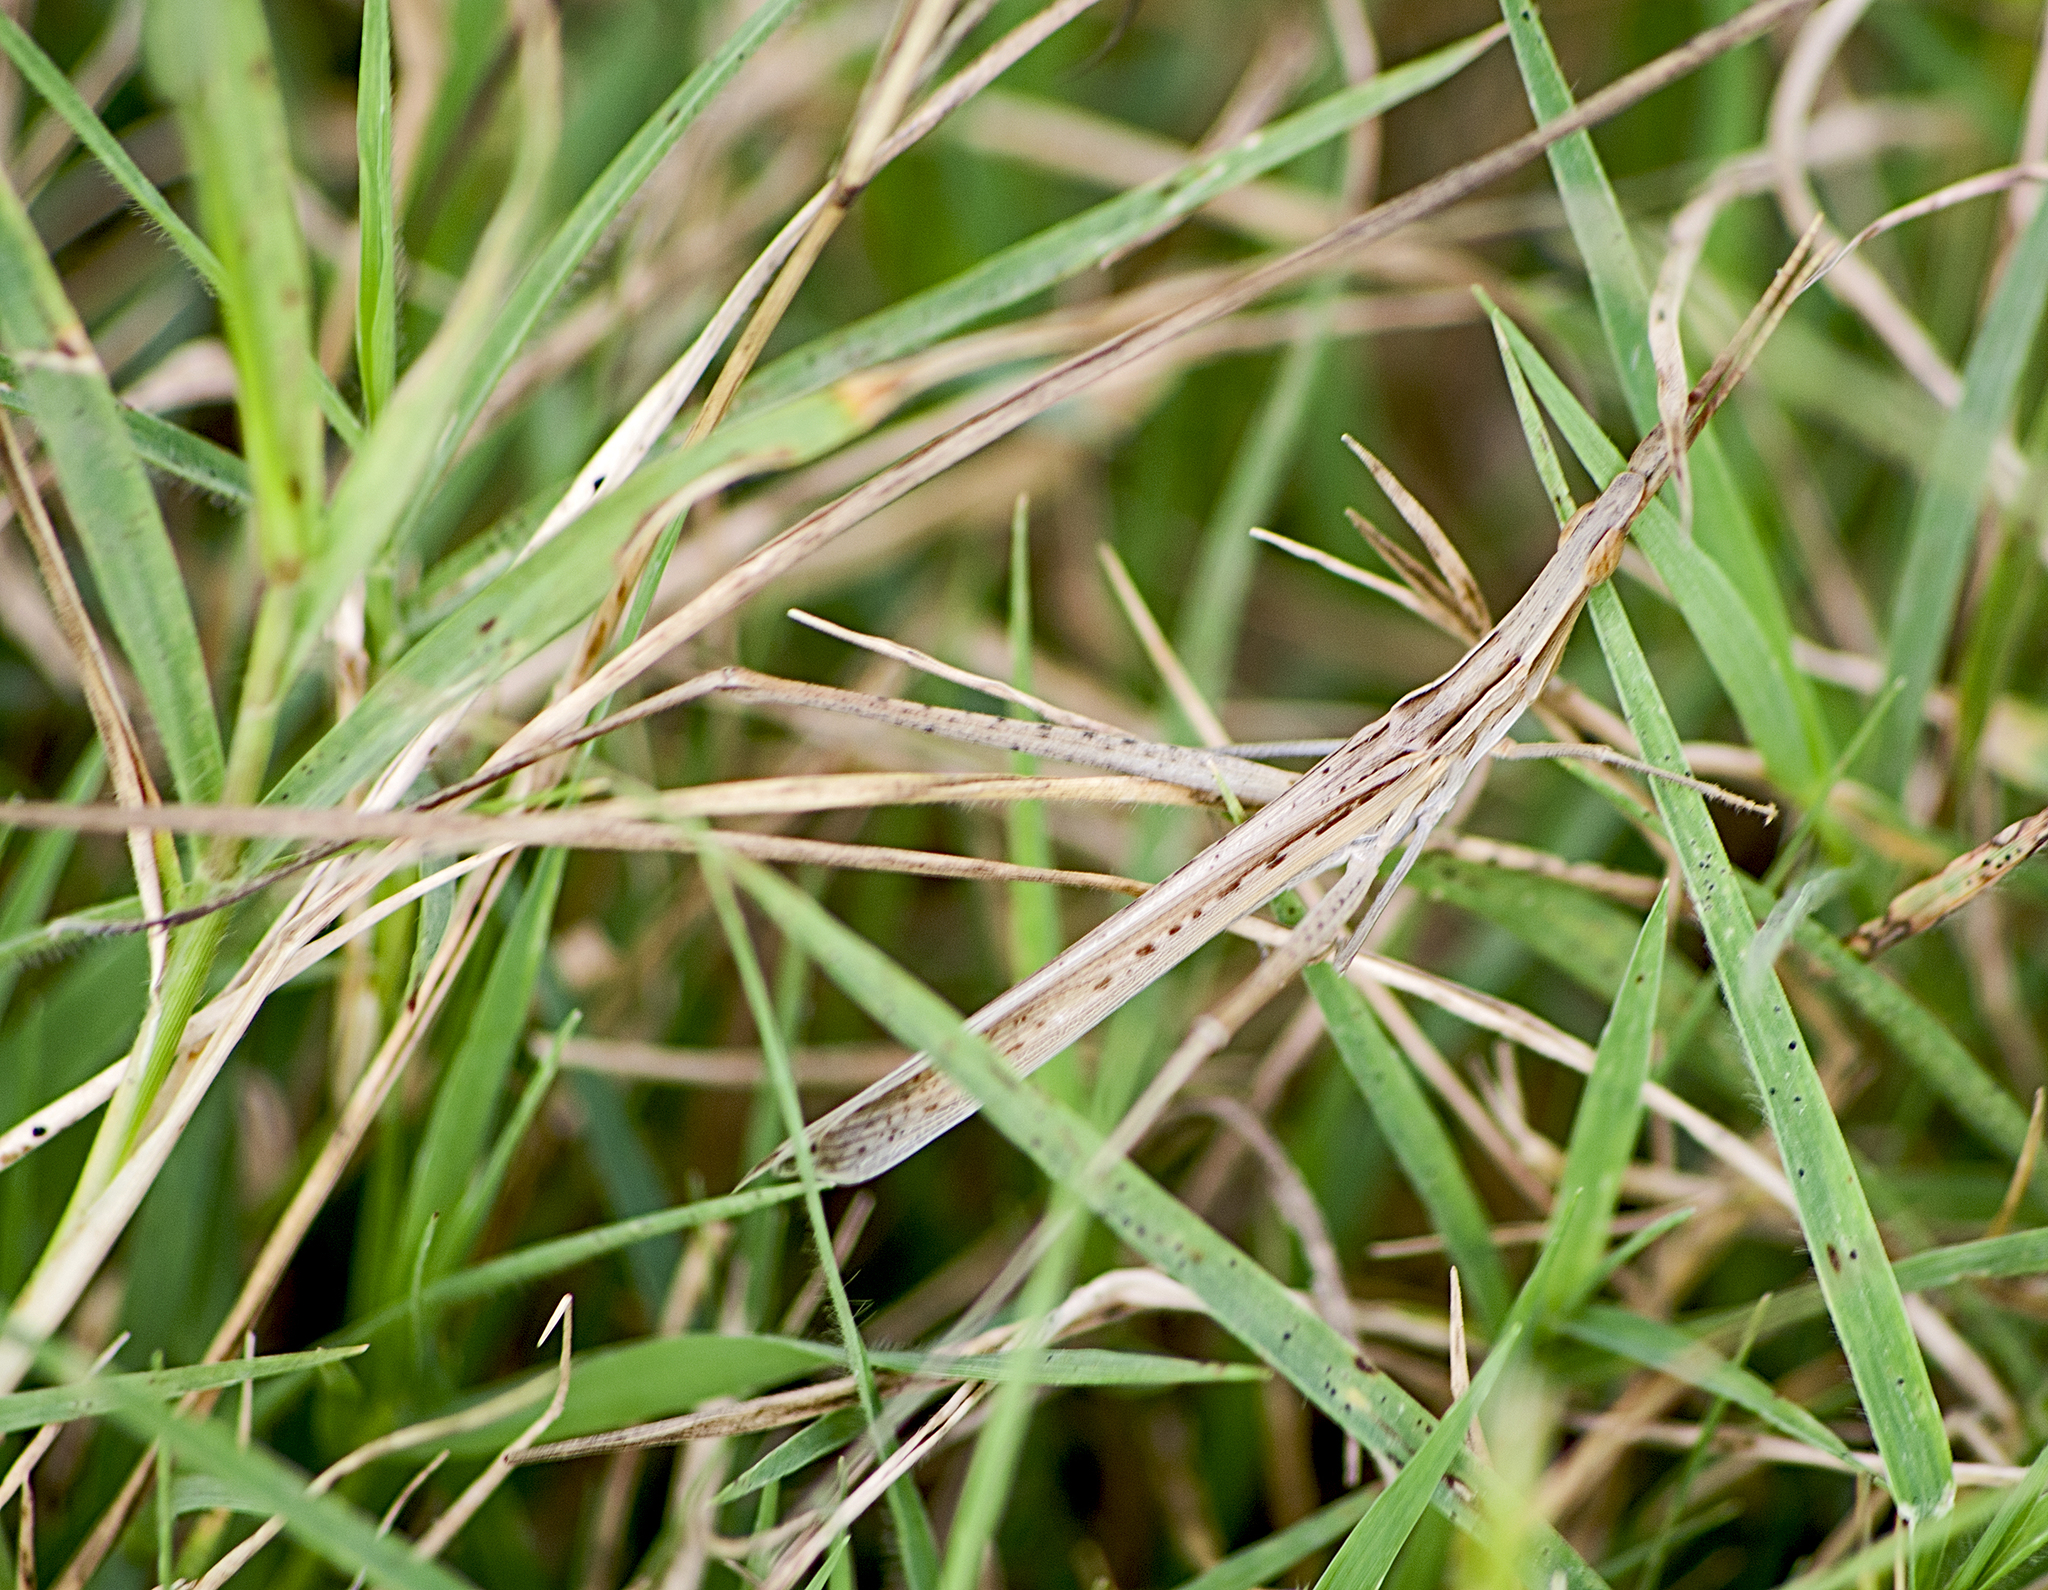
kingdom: Animalia
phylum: Arthropoda
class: Insecta
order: Orthoptera
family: Acrididae
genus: Acrida
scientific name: Acrida ungarica
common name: Common cone-headed grasshopper
